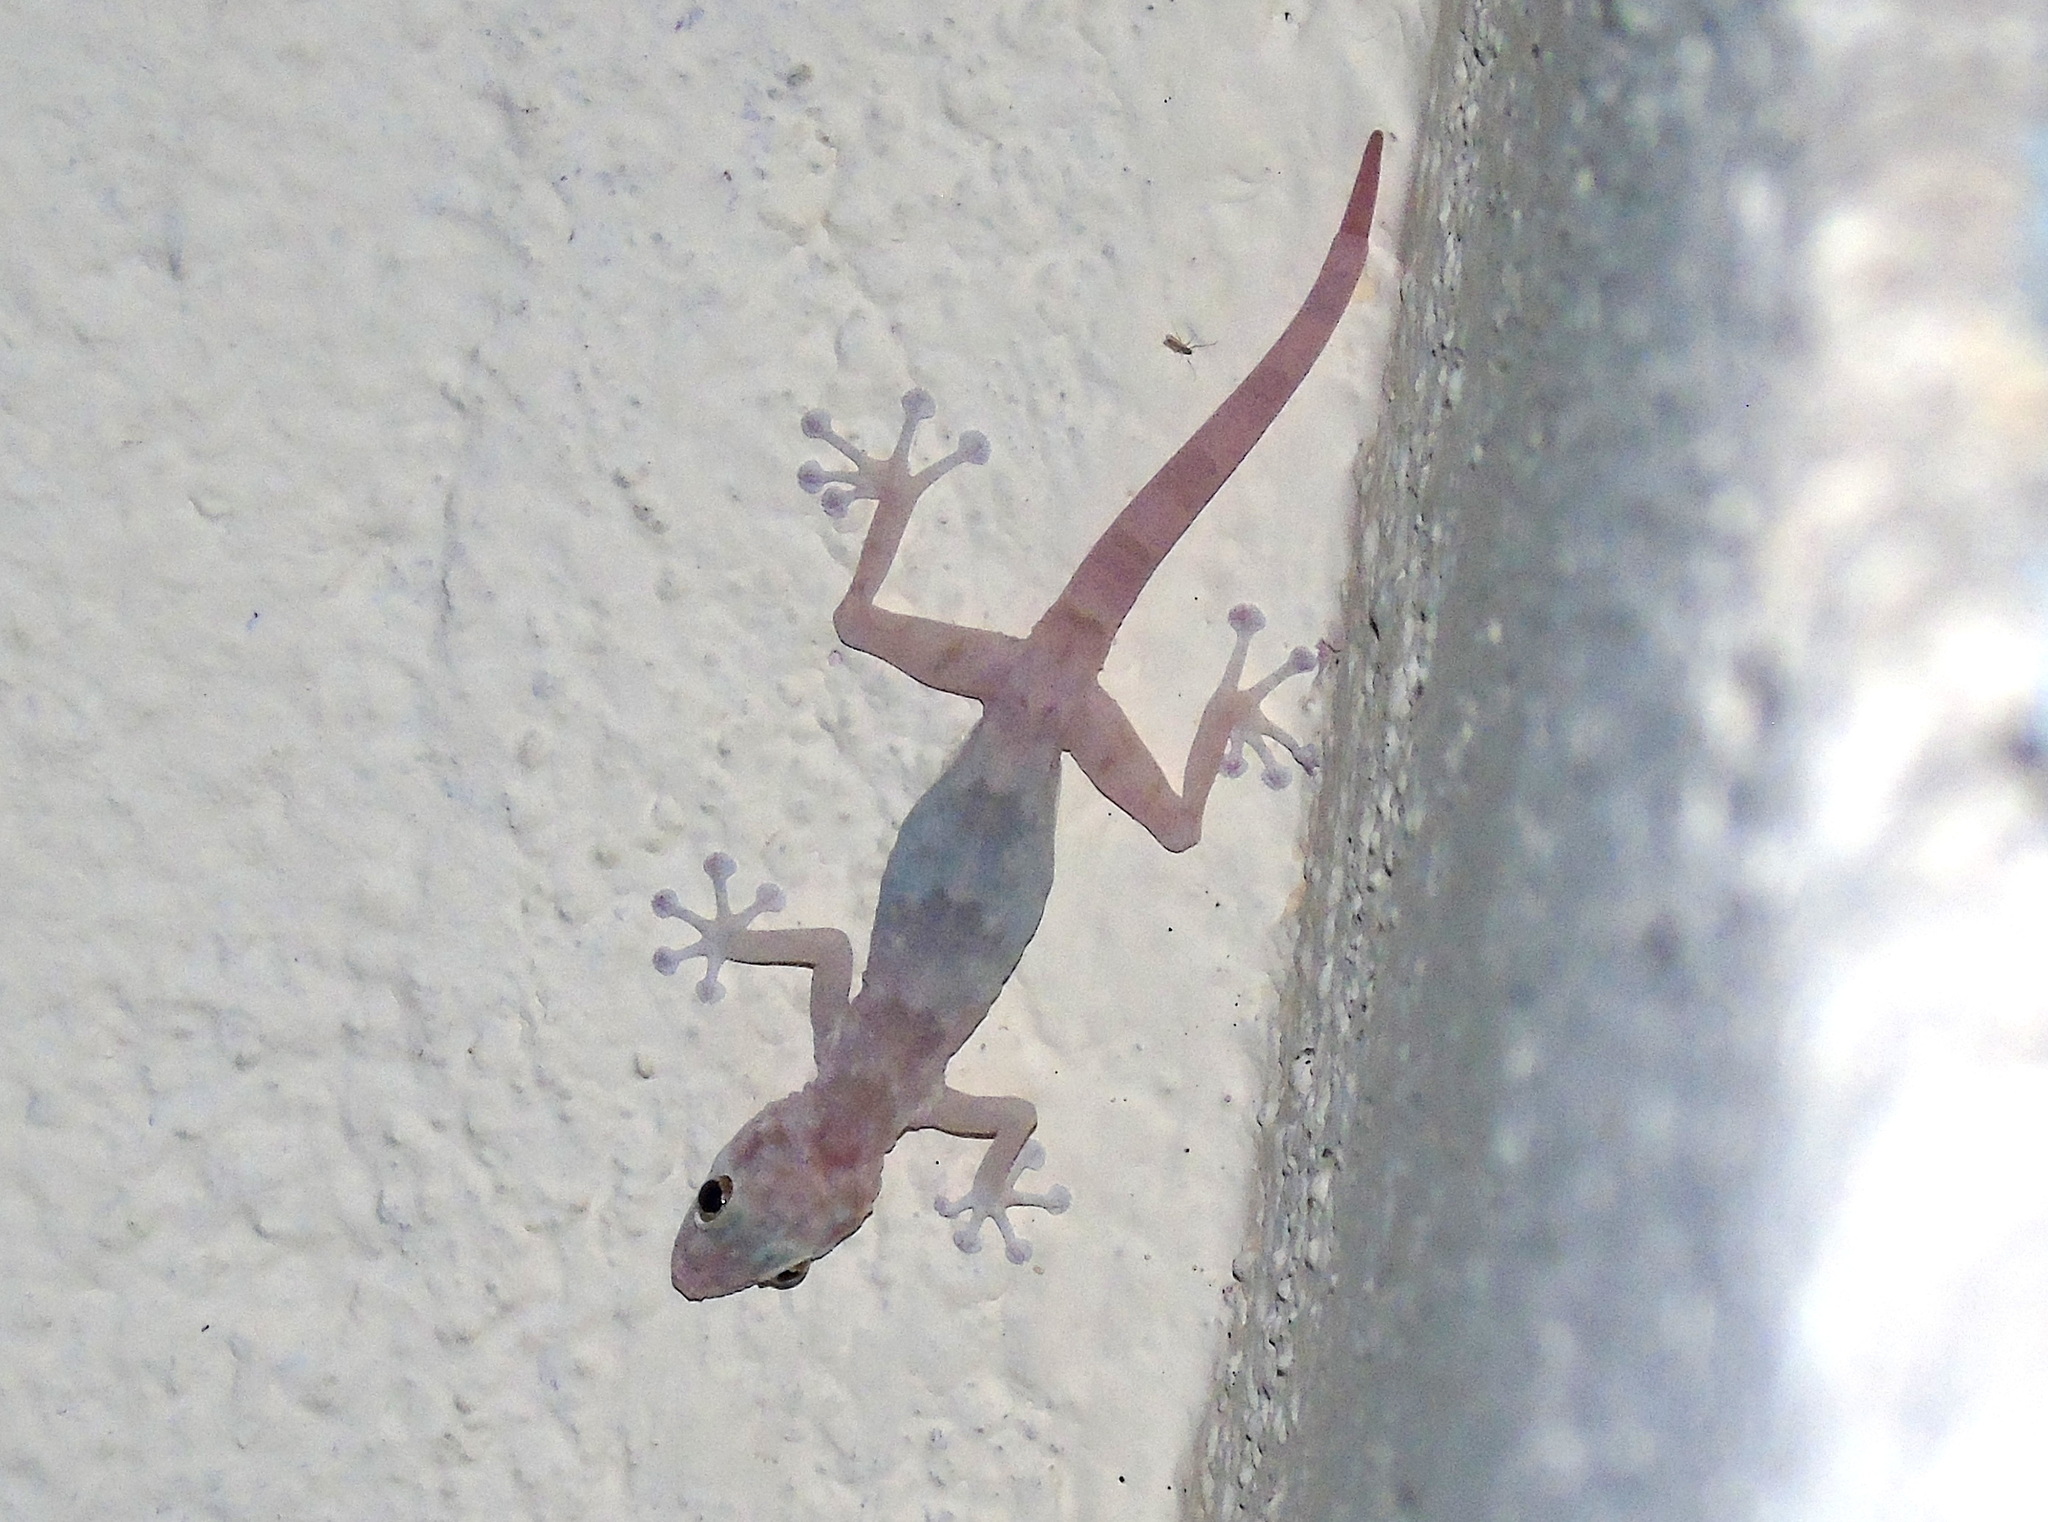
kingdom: Animalia
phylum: Chordata
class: Squamata
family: Phyllodactylidae
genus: Ptyodactylus
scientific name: Ptyodactylus hasselquistii
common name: Hasselquist’s fan-footed gecko
